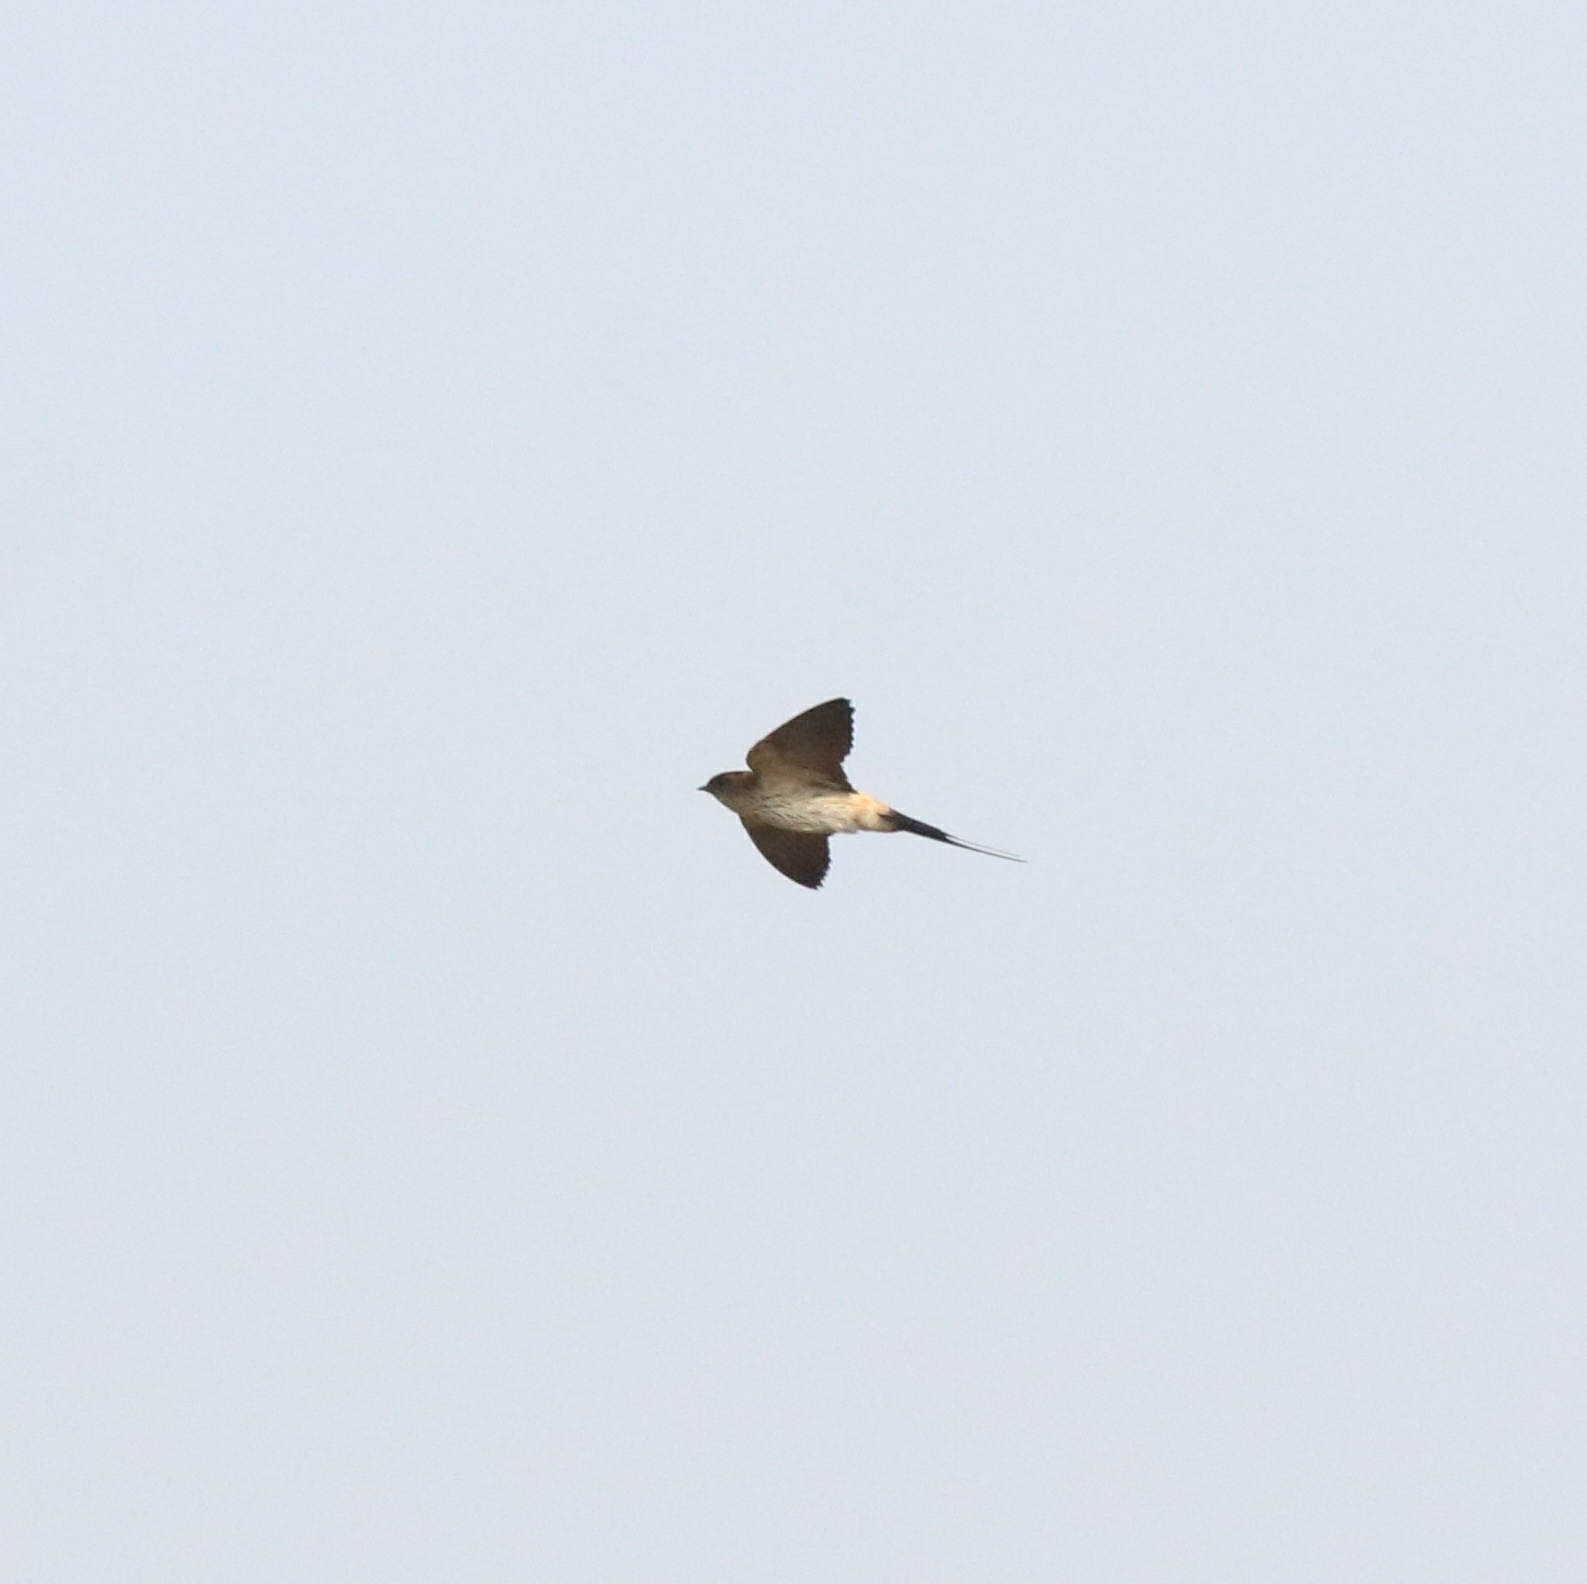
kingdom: Animalia
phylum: Chordata
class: Aves
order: Passeriformes
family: Hirundinidae
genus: Cecropis
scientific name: Cecropis daurica
